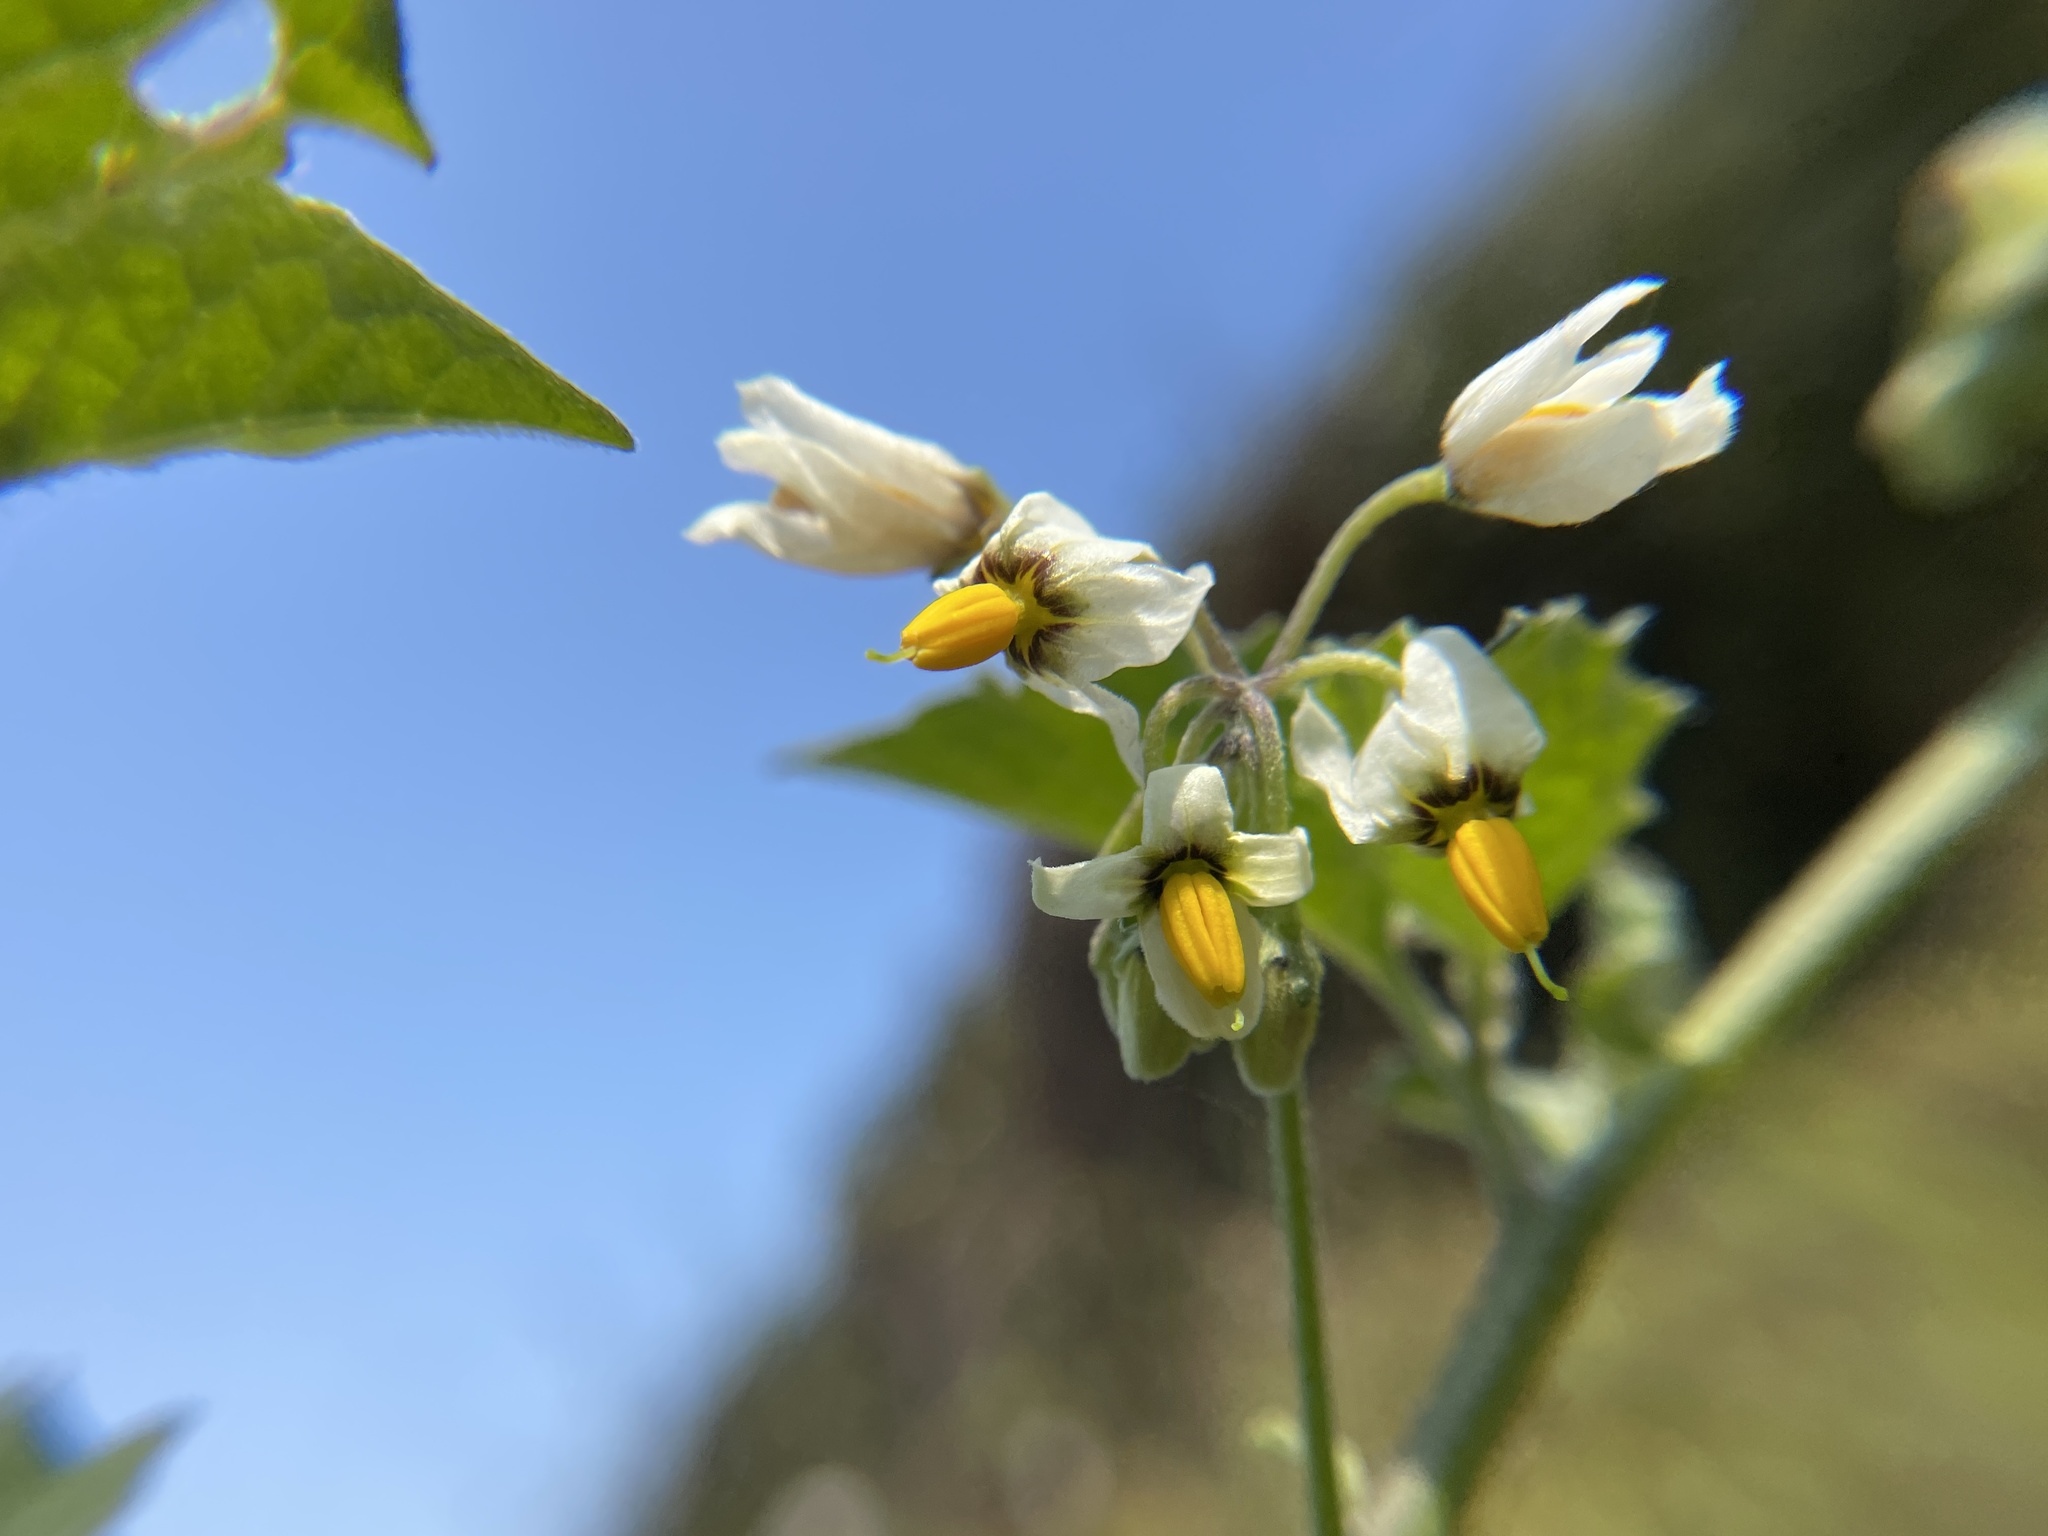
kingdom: Plantae
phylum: Tracheophyta
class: Magnoliopsida
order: Solanales
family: Solanaceae
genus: Solanum
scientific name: Solanum douglasii
